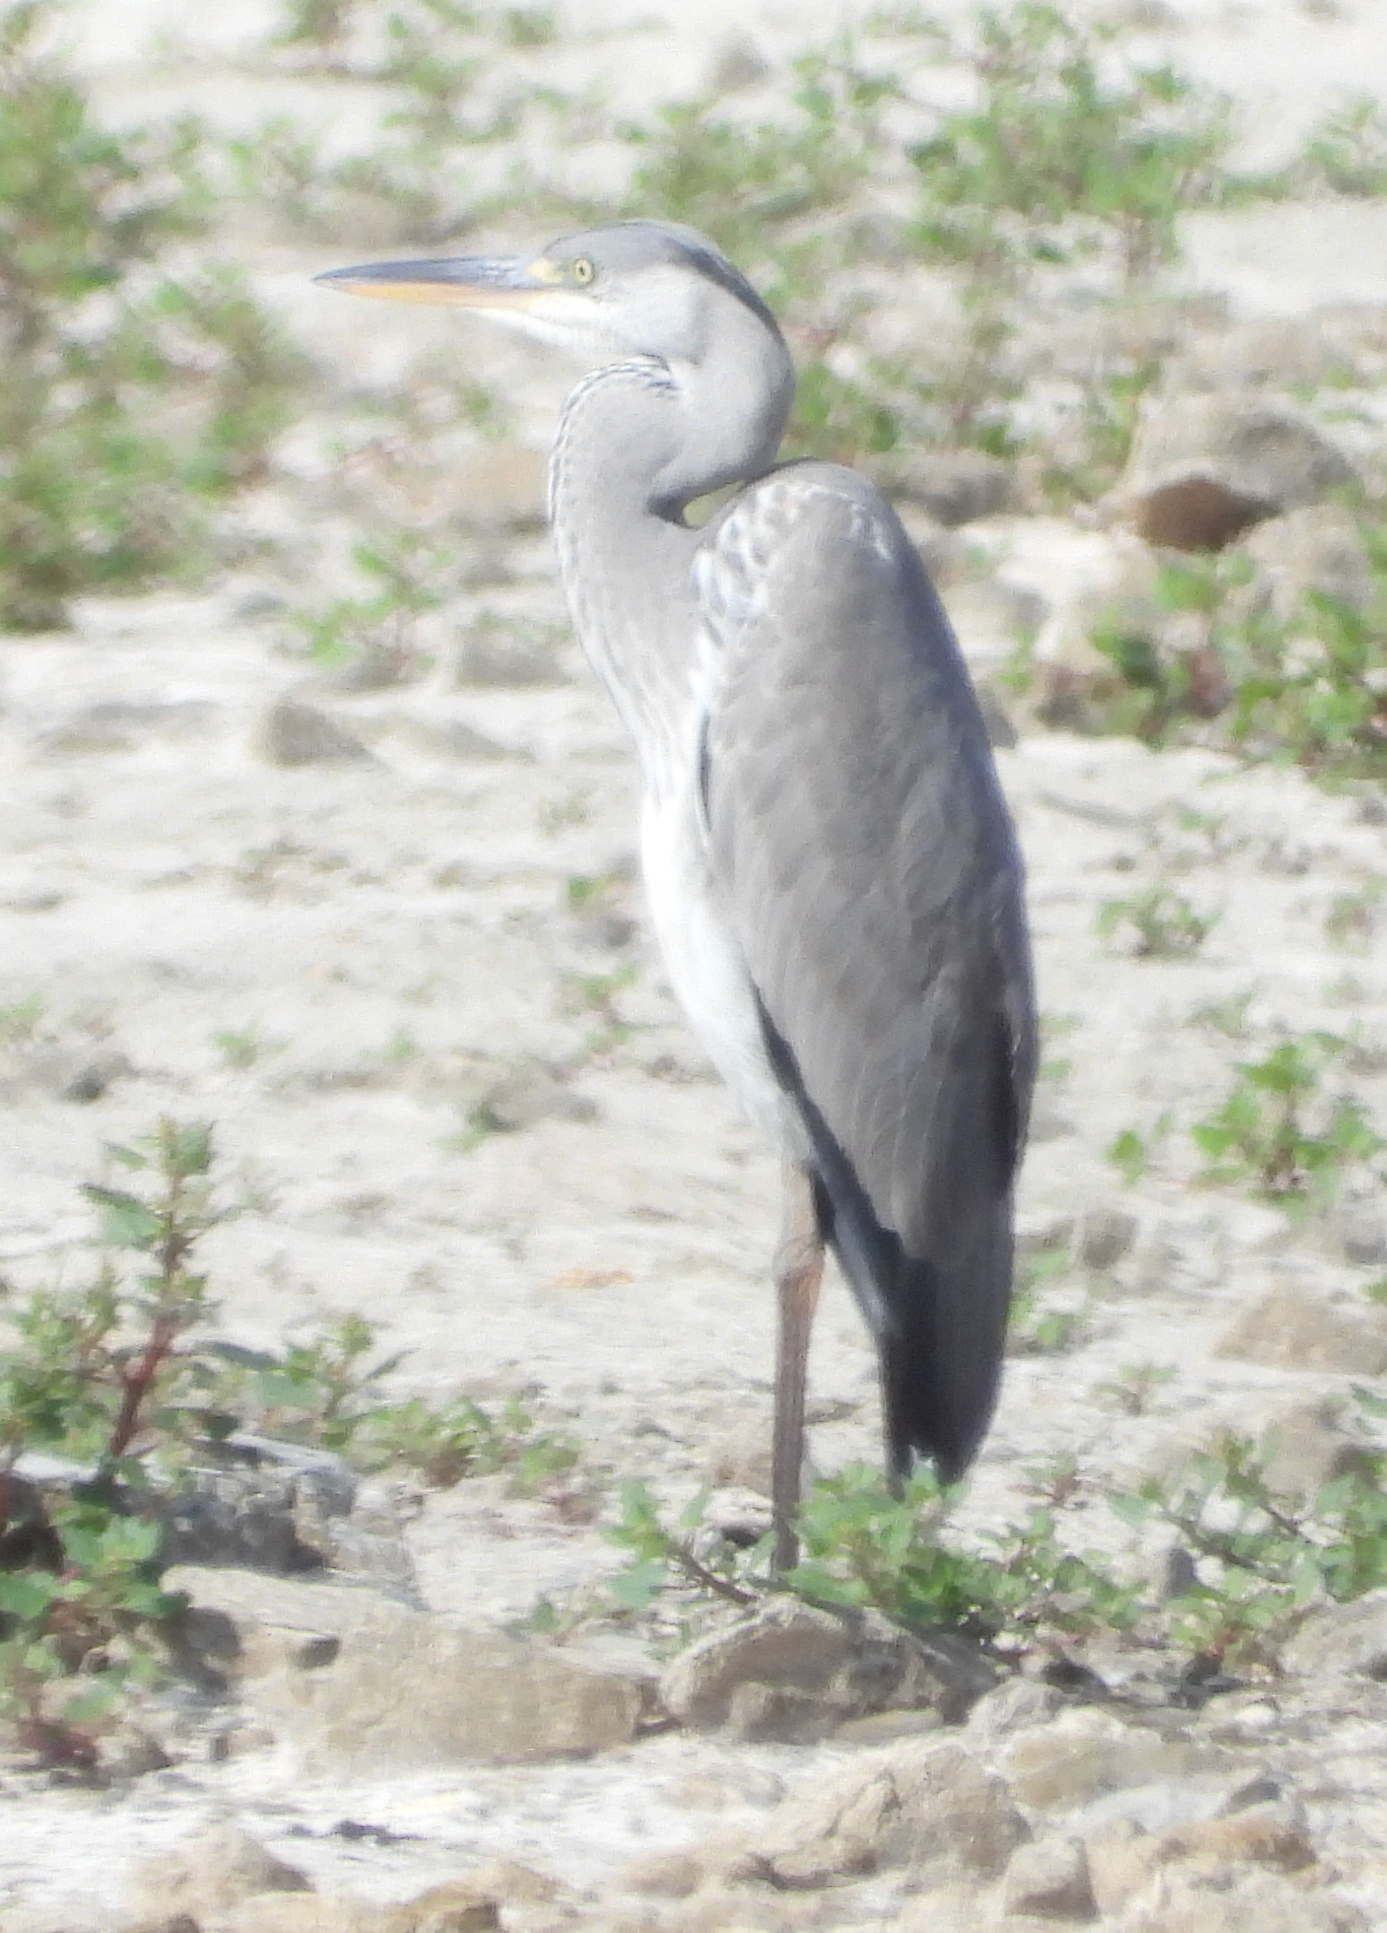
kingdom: Animalia
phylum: Chordata
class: Aves
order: Pelecaniformes
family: Ardeidae
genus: Ardea
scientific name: Ardea melanocephala
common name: Black-headed heron
